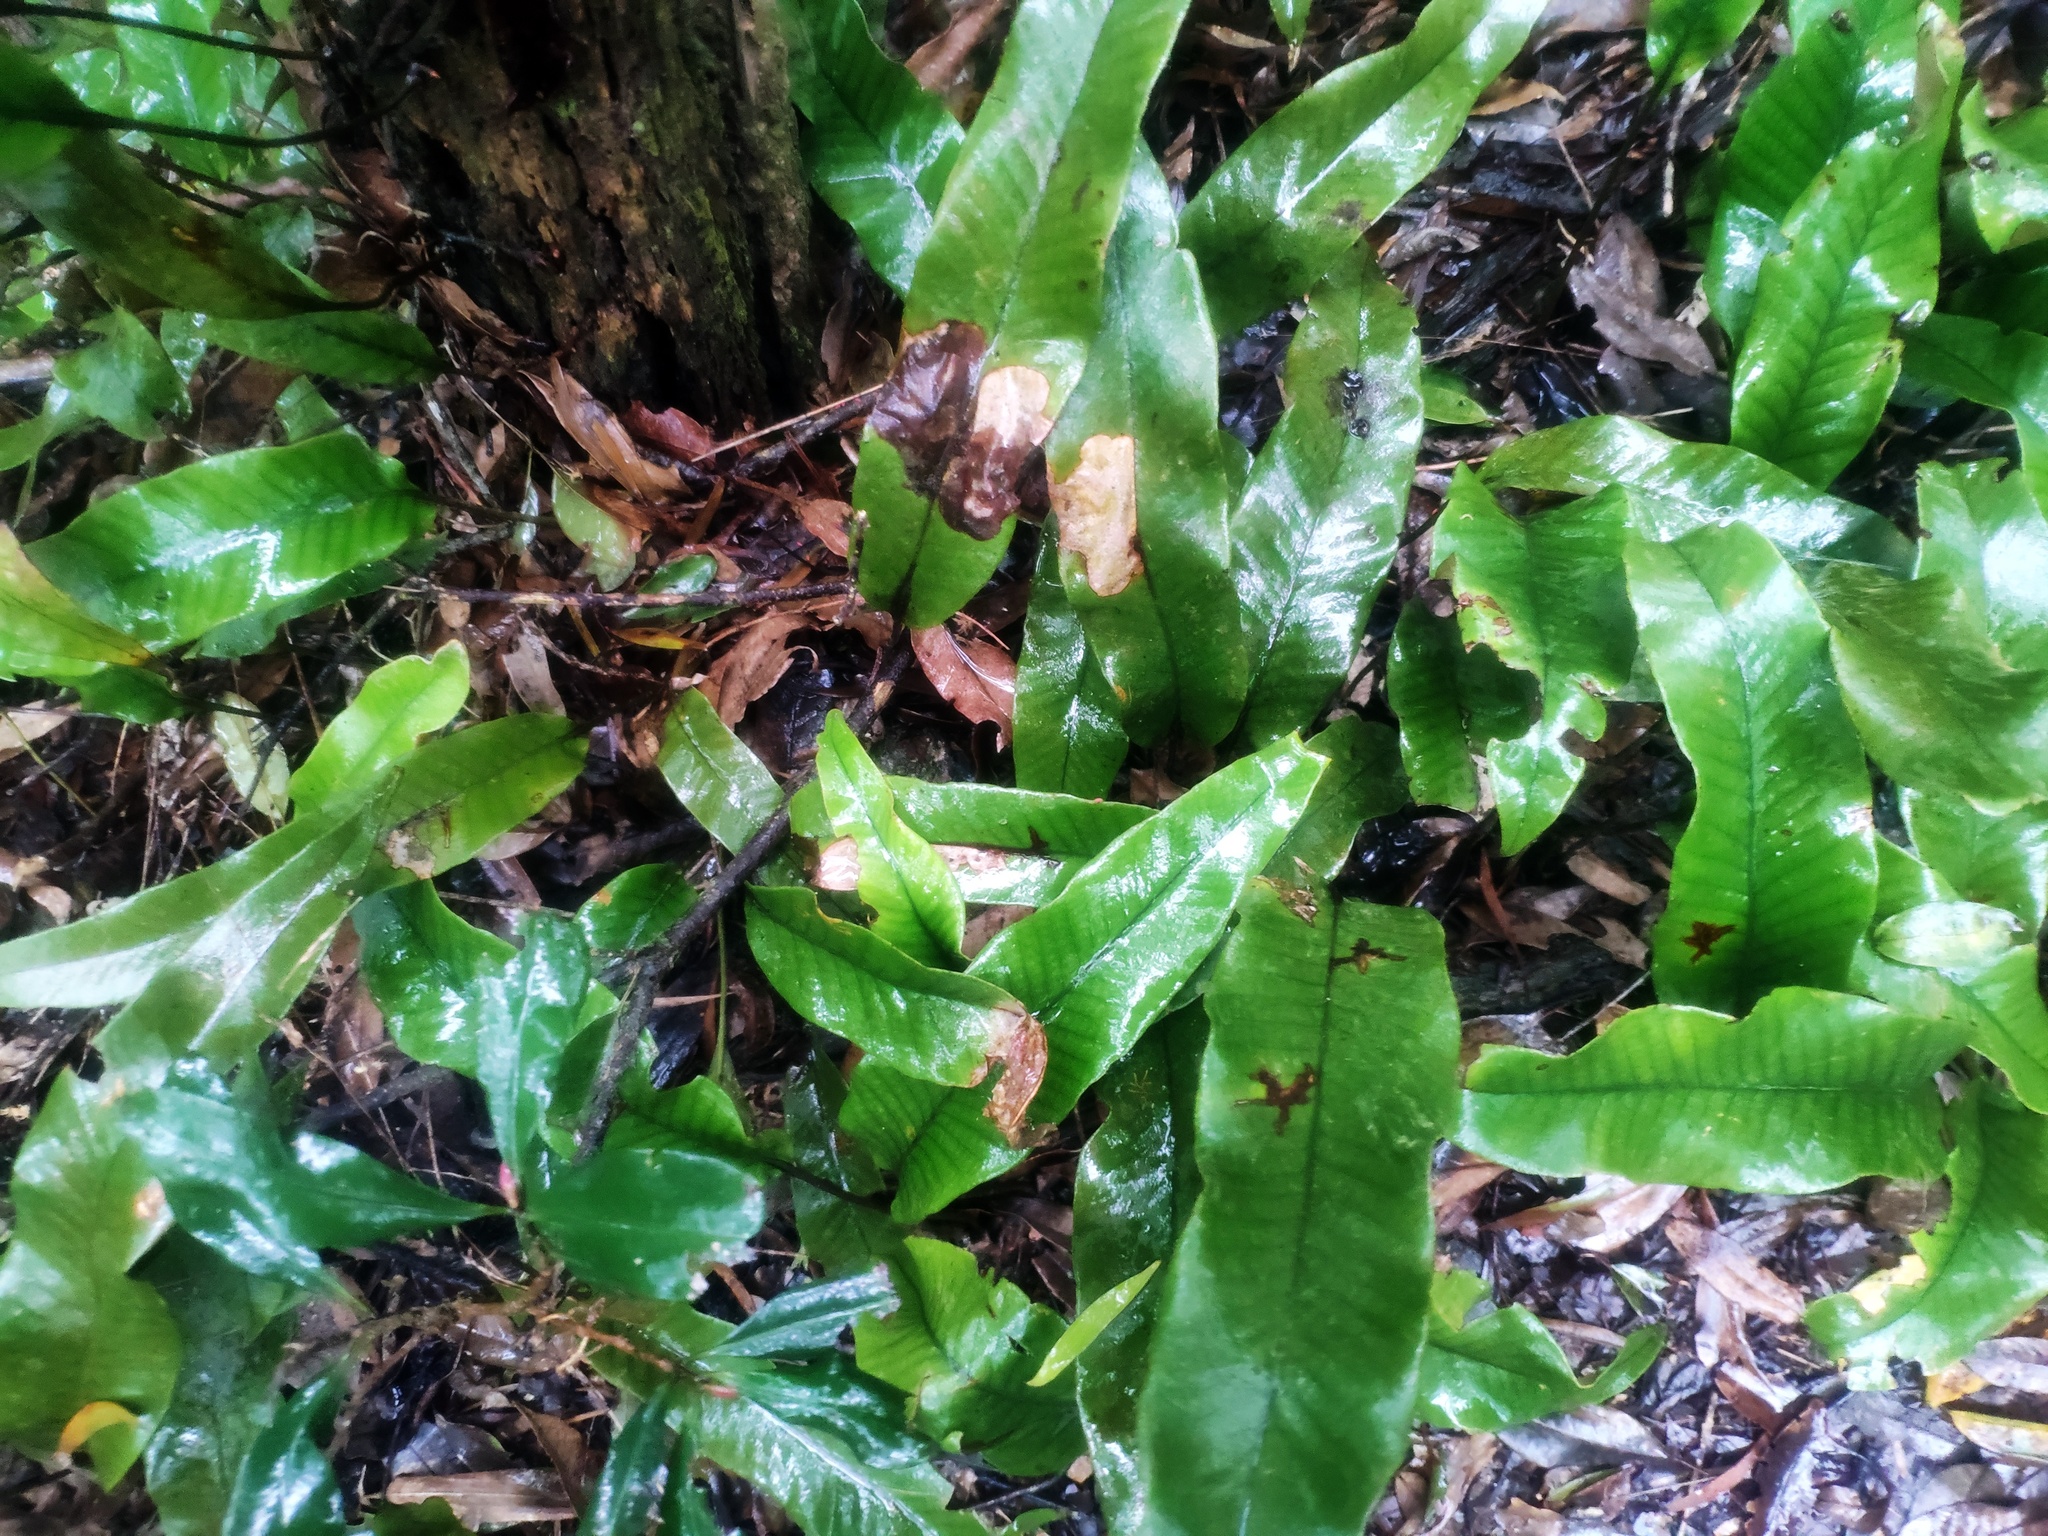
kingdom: Plantae
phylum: Tracheophyta
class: Polypodiopsida
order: Polypodiales
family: Polypodiaceae
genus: Pyrrosia
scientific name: Pyrrosia lingua
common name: Felt fern
